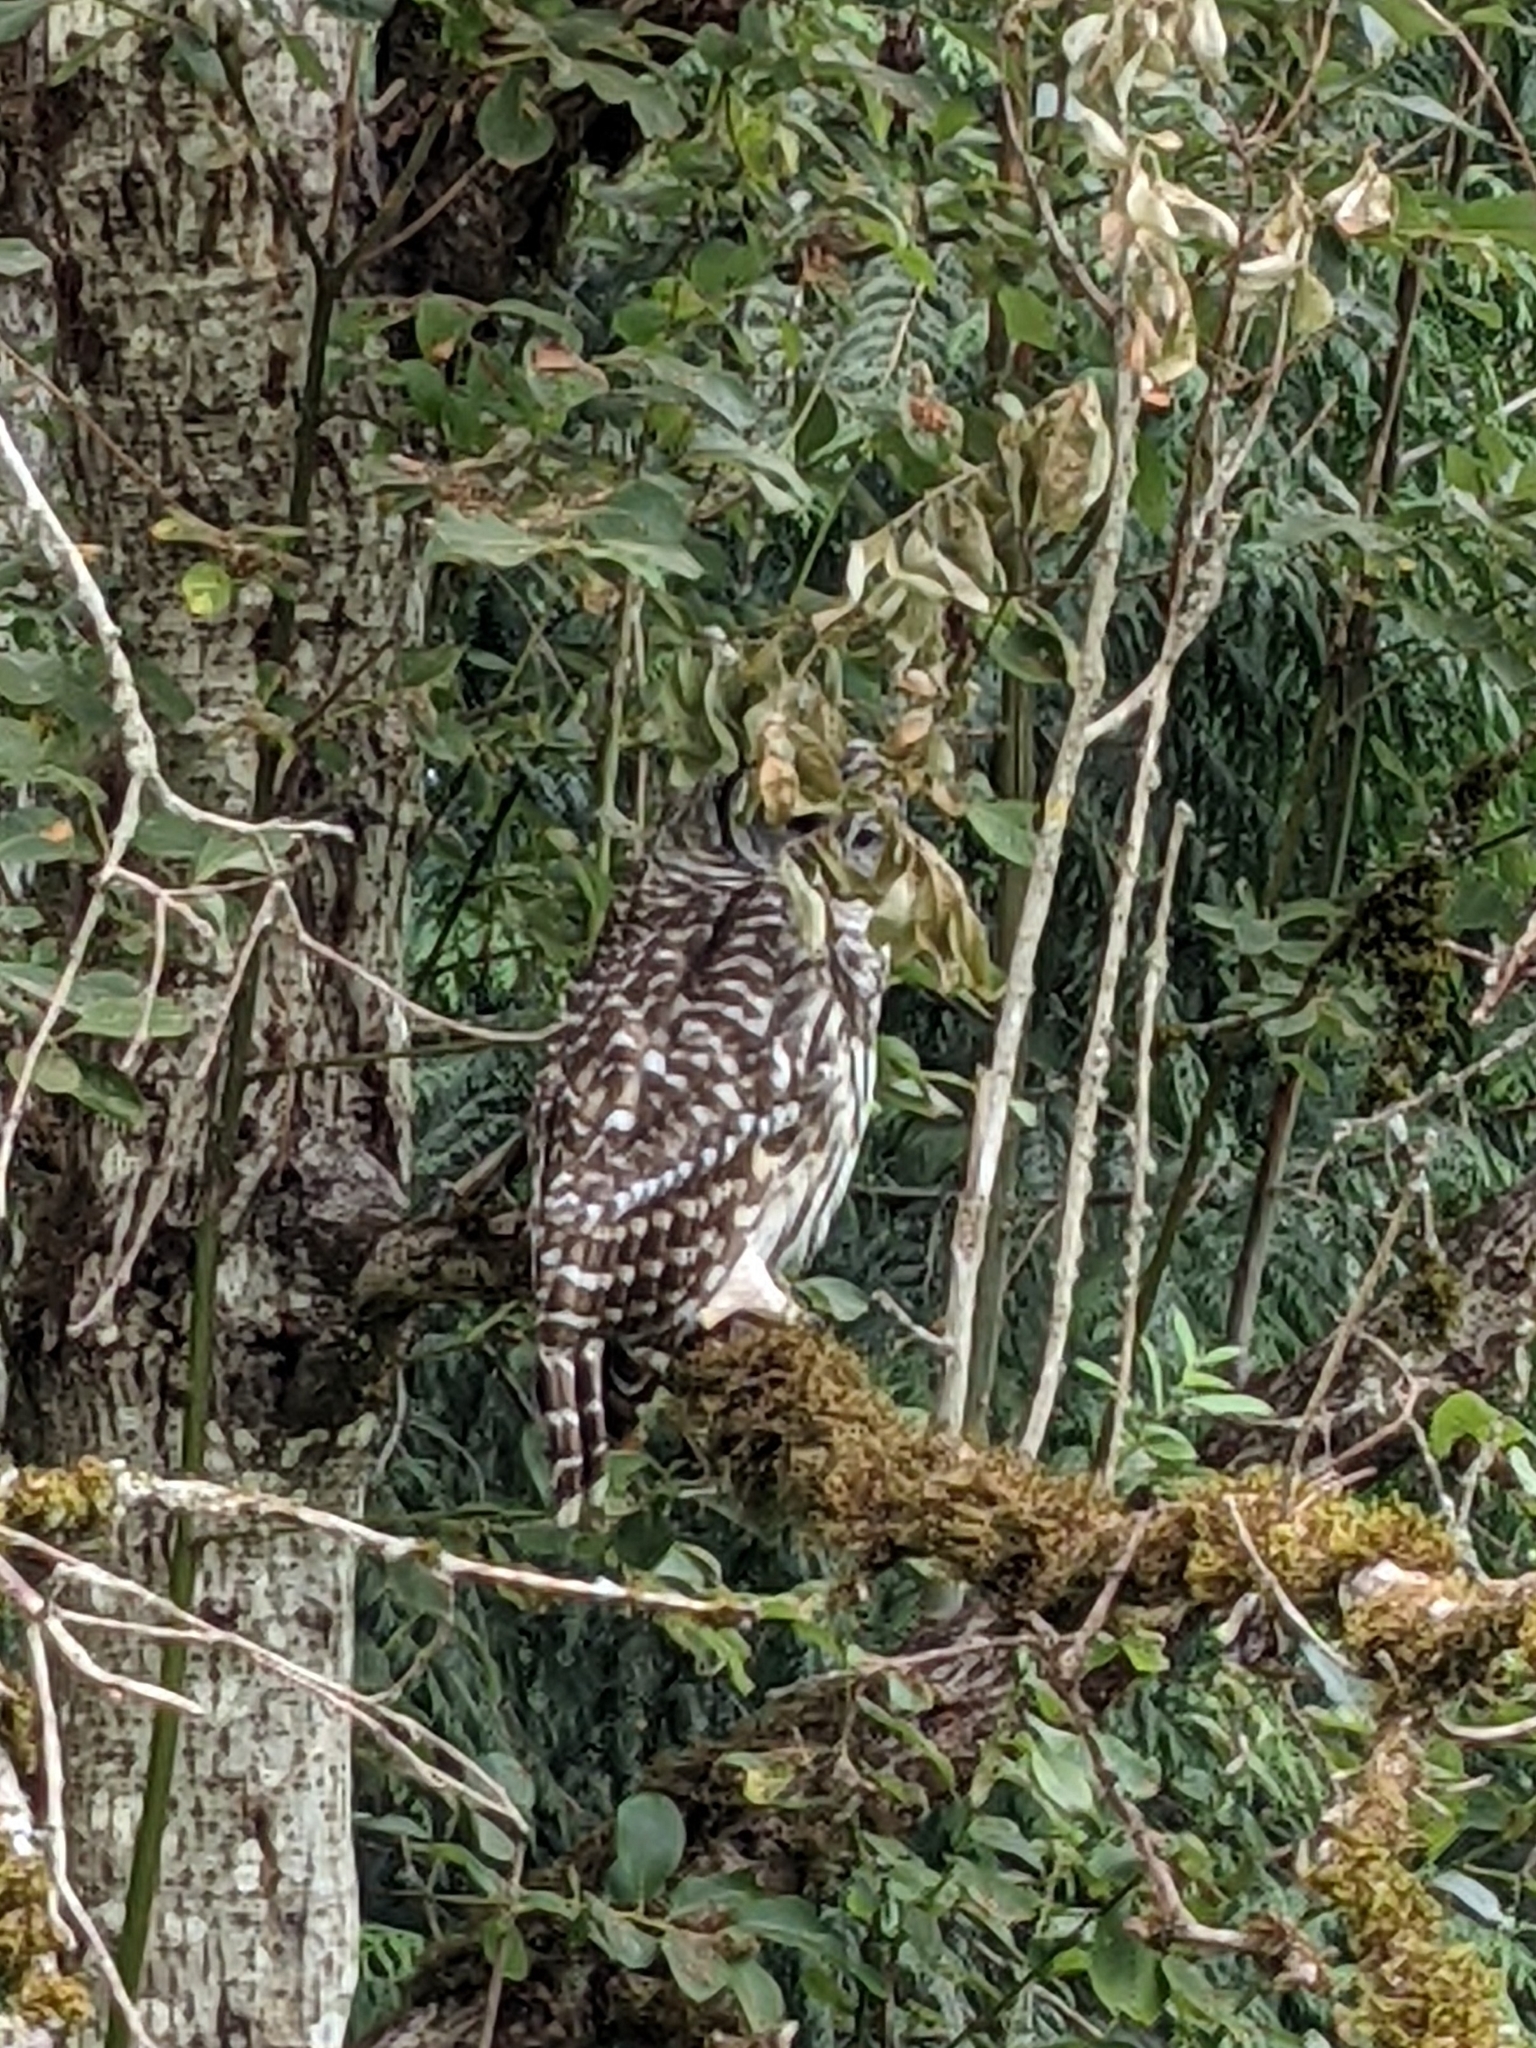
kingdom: Animalia
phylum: Chordata
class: Aves
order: Strigiformes
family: Strigidae
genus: Strix
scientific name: Strix varia
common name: Barred owl
